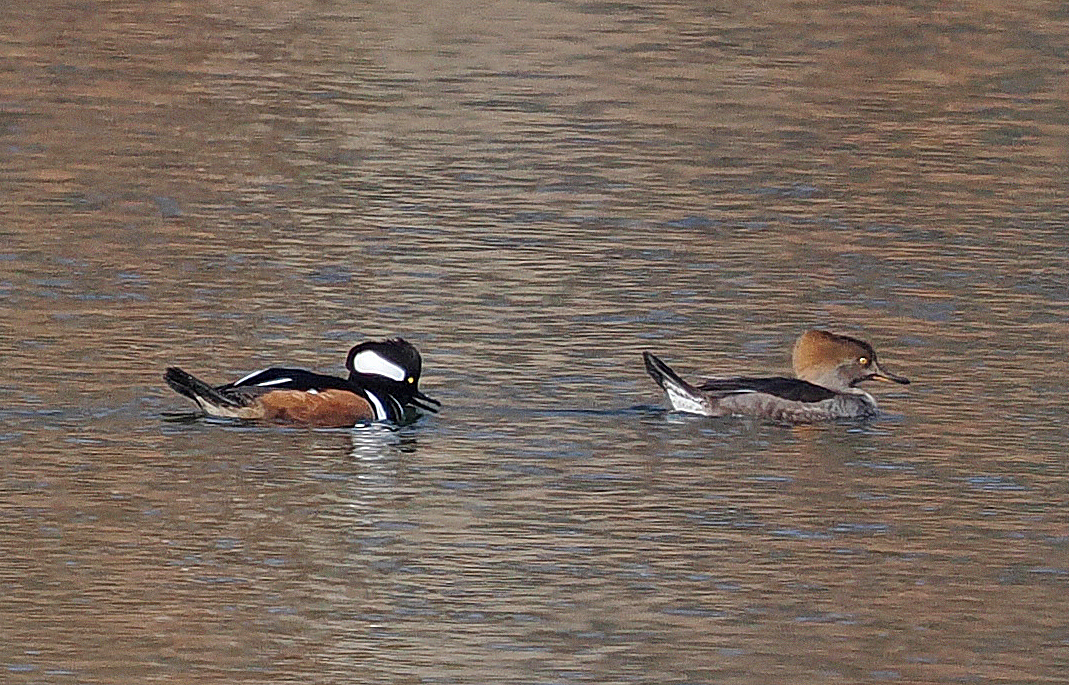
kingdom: Animalia
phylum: Chordata
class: Aves
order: Anseriformes
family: Anatidae
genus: Lophodytes
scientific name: Lophodytes cucullatus
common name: Hooded merganser
